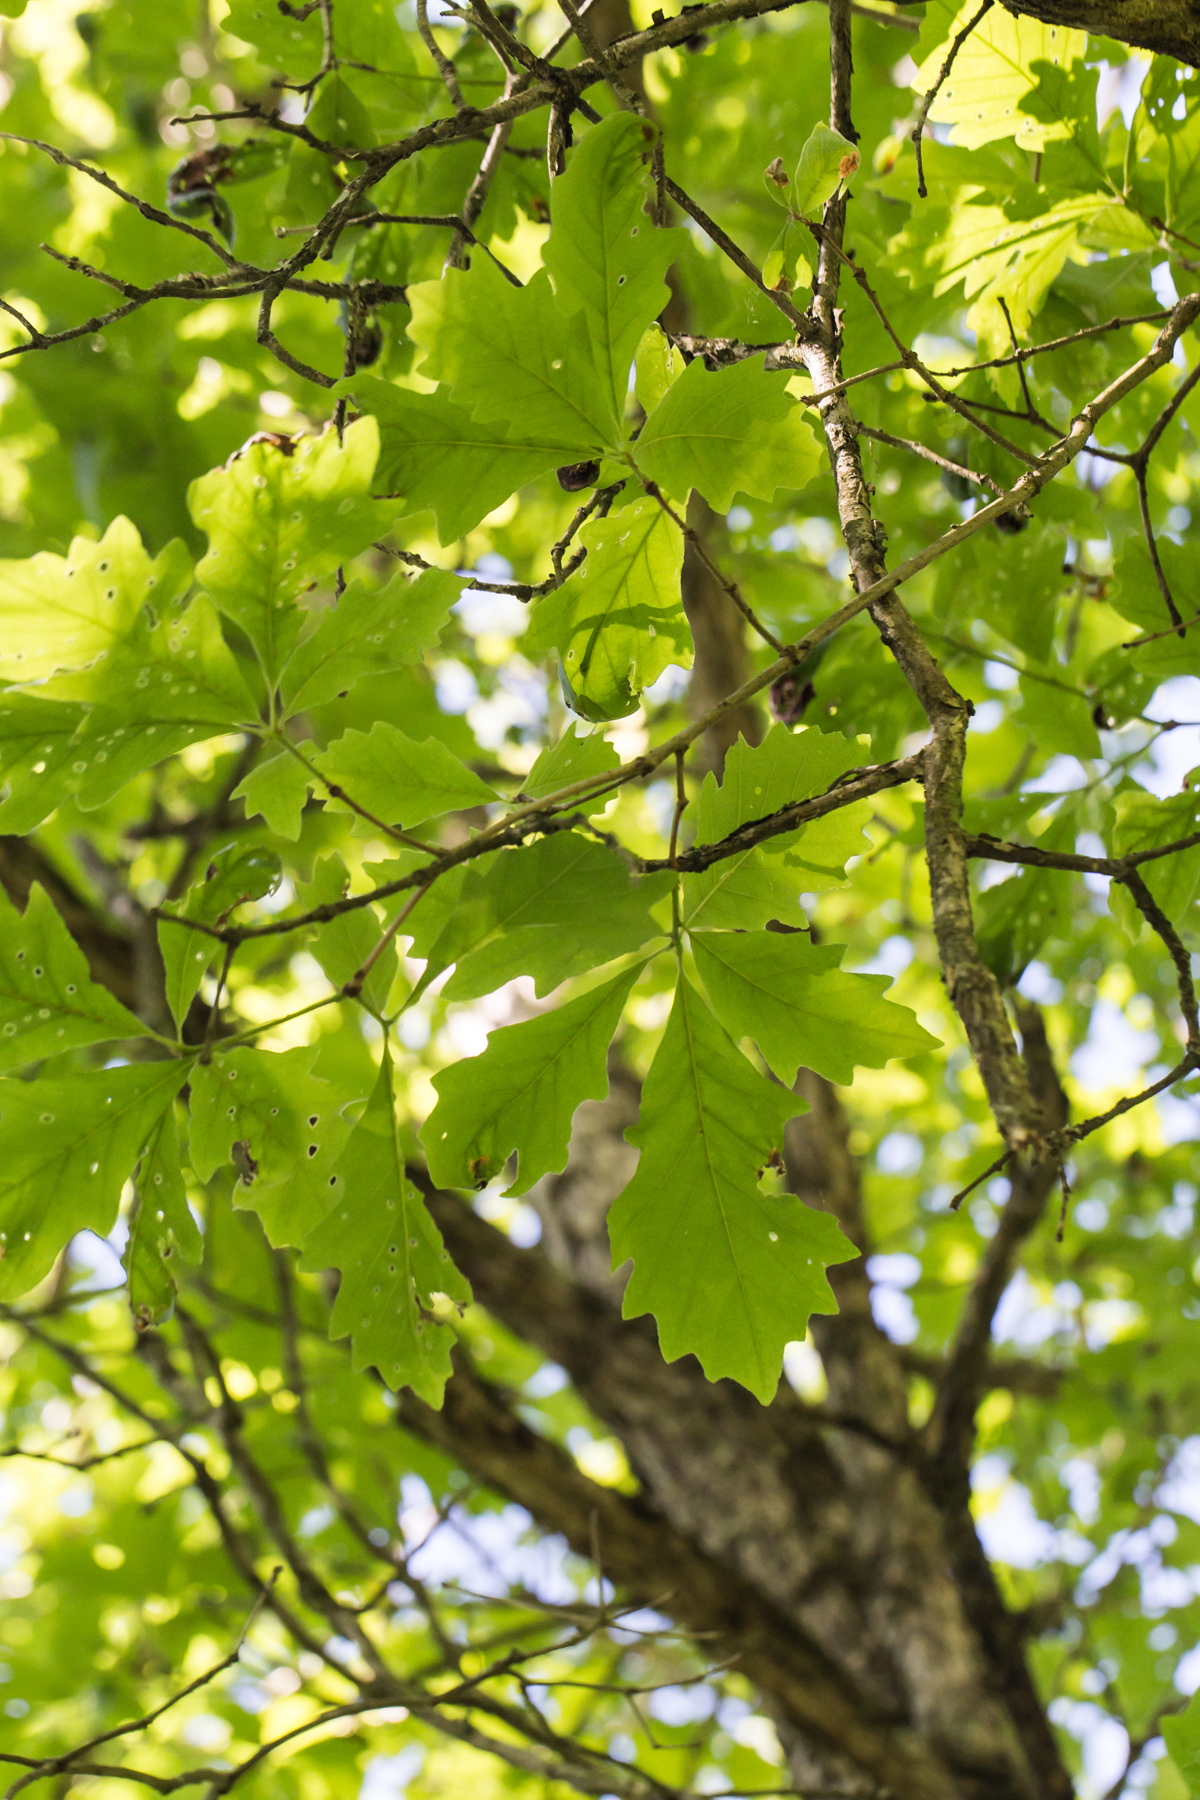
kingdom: Plantae
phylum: Tracheophyta
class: Magnoliopsida
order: Fagales
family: Fagaceae
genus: Quercus
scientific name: Quercus bicolor
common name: Swamp white oak
